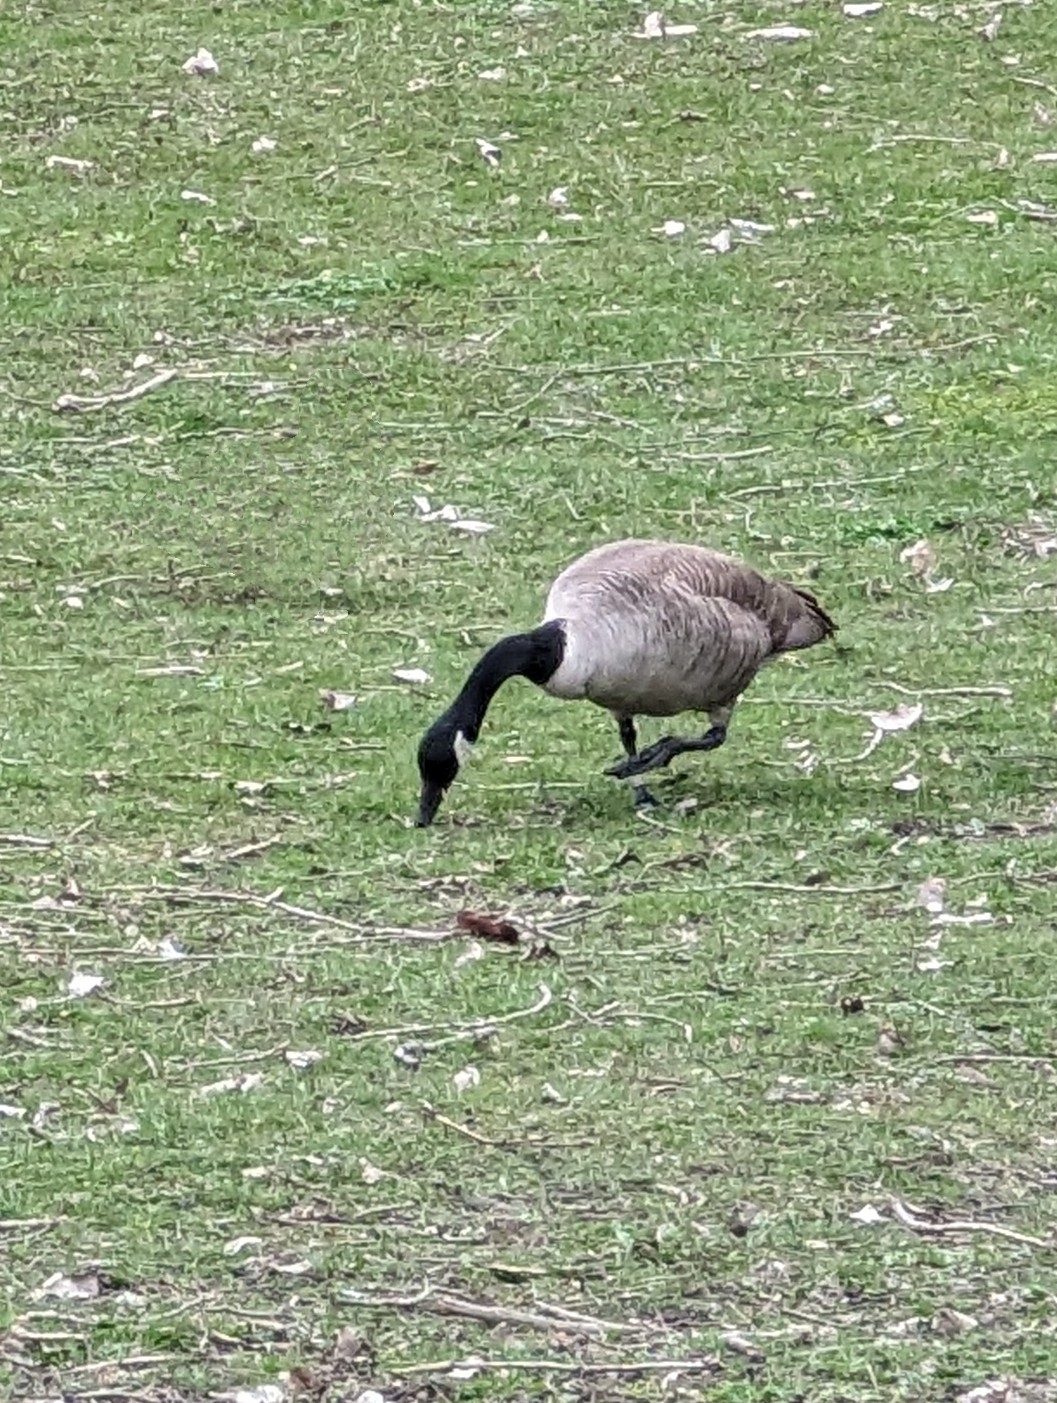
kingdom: Animalia
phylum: Chordata
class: Aves
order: Anseriformes
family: Anatidae
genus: Branta
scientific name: Branta canadensis
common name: Canada goose
